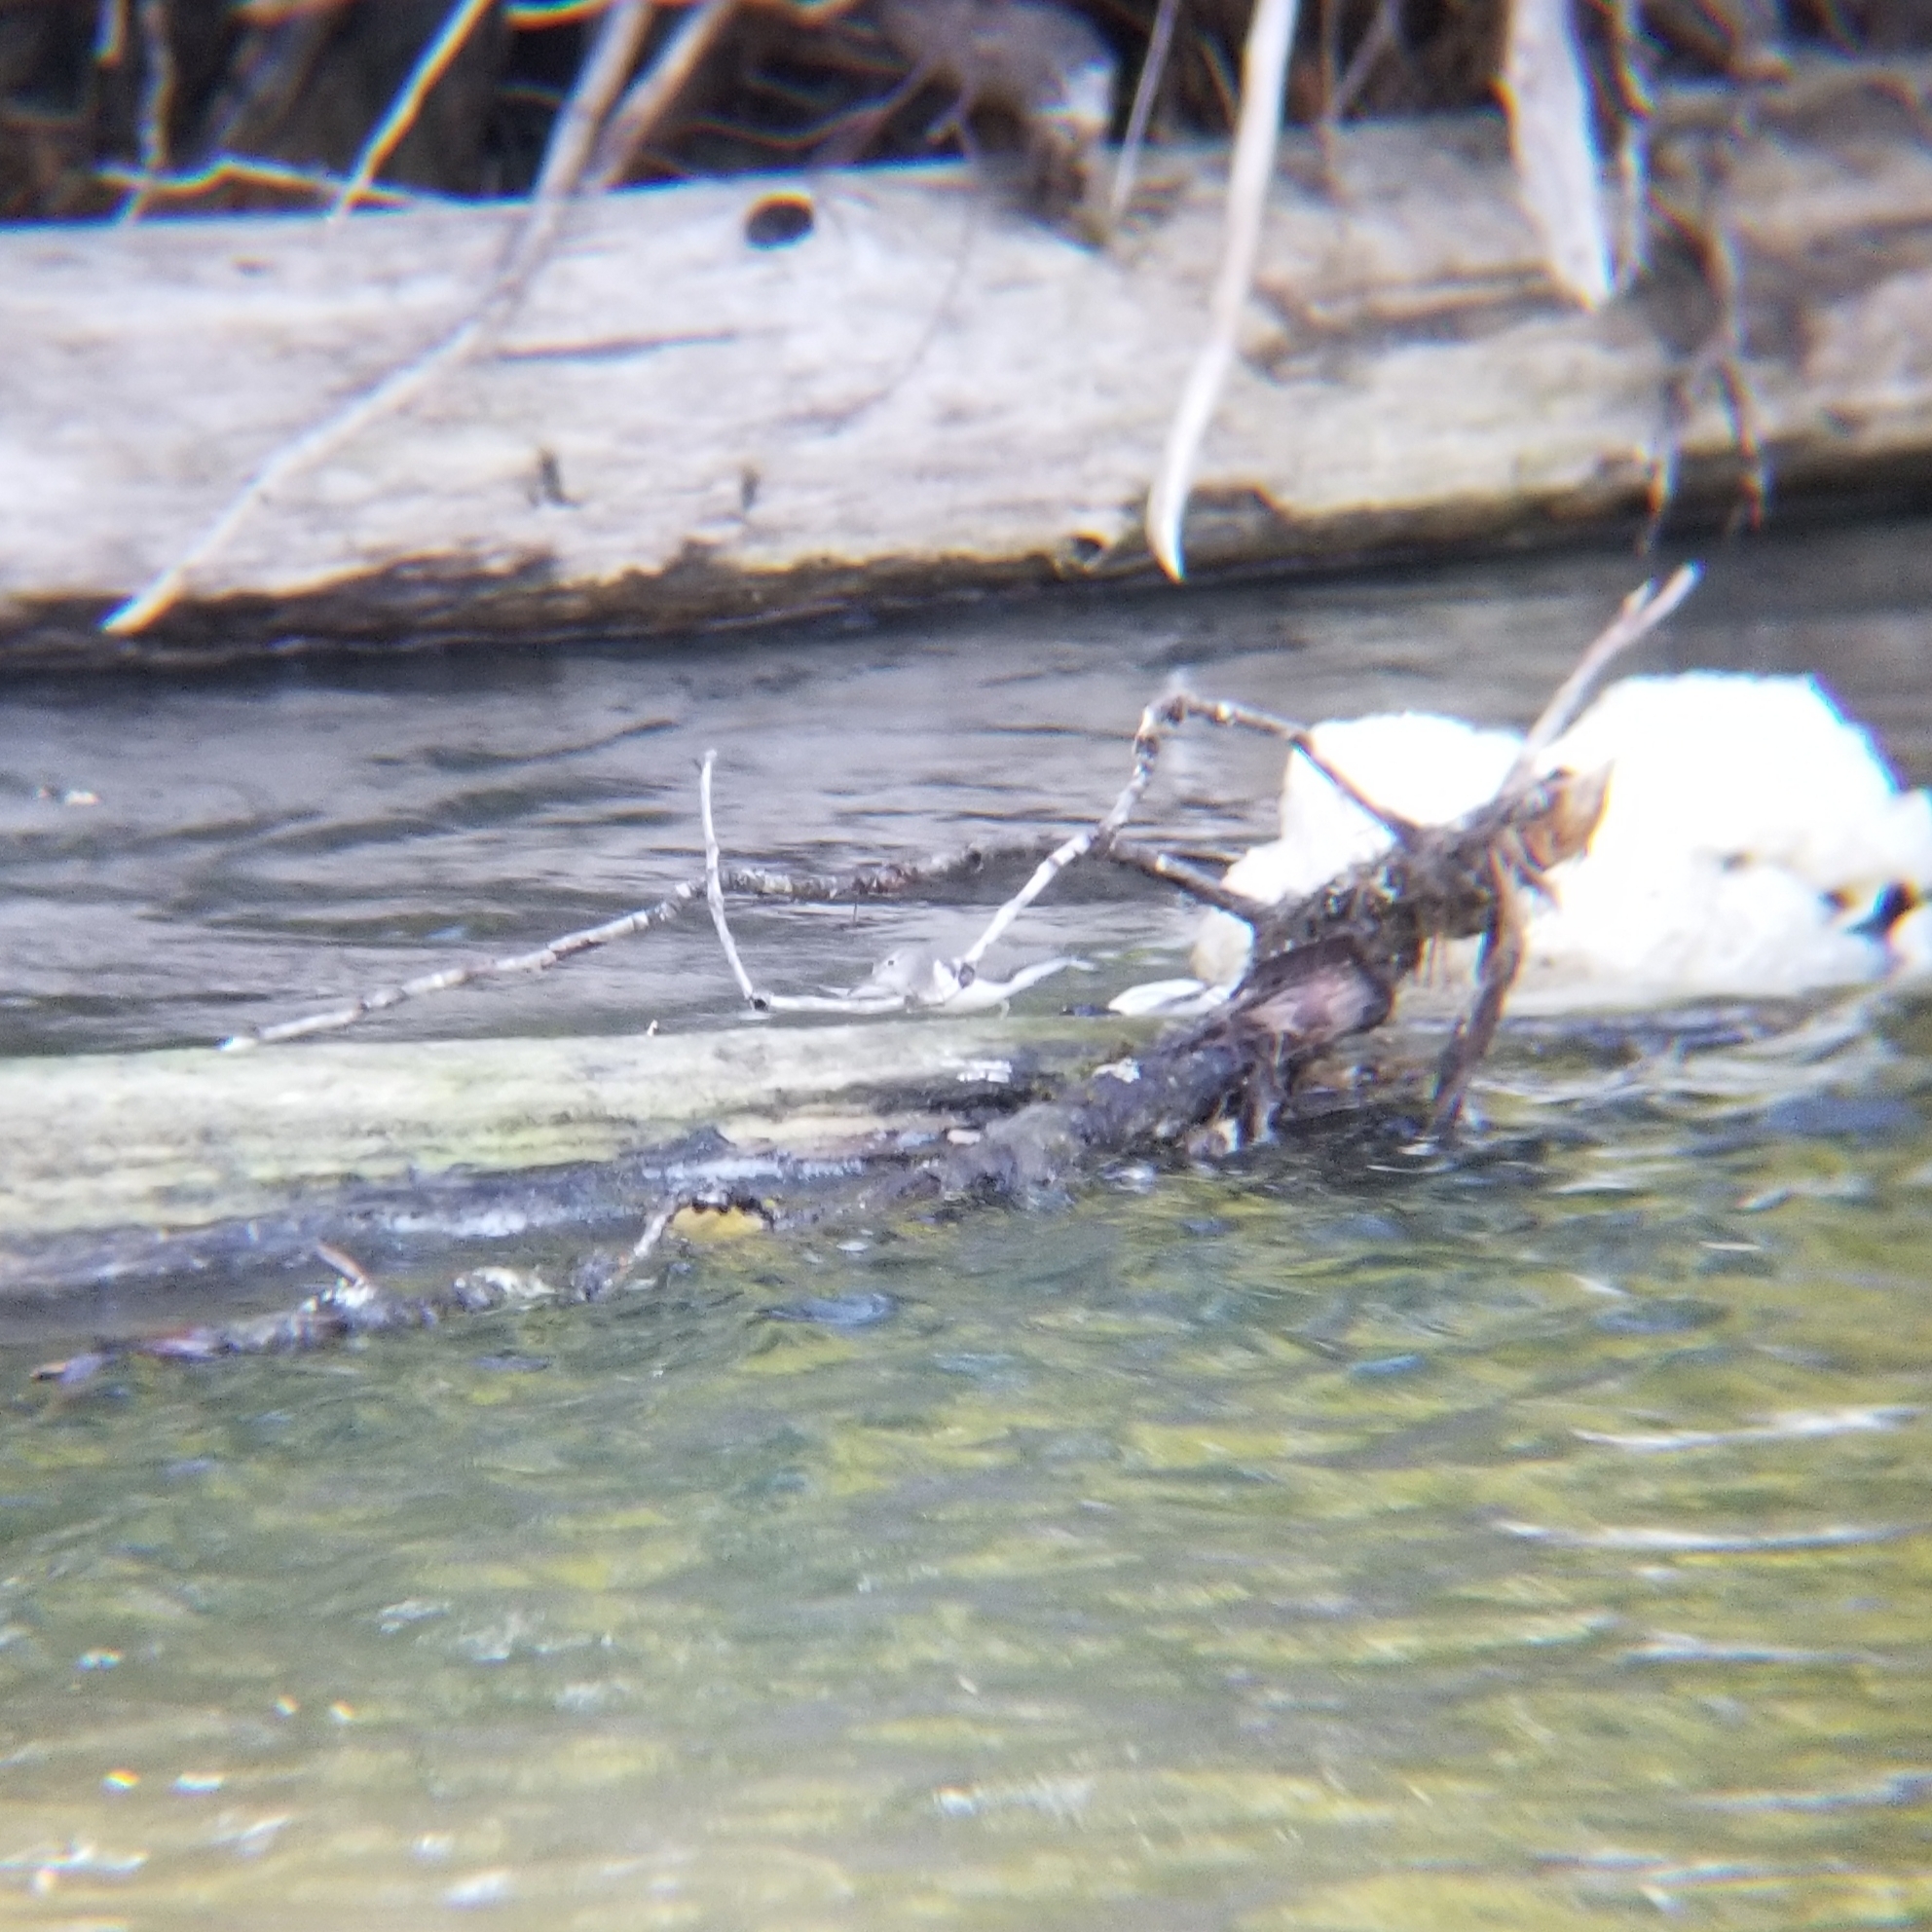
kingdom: Animalia
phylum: Chordata
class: Aves
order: Charadriiformes
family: Scolopacidae
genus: Actitis
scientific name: Actitis macularius
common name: Spotted sandpiper
